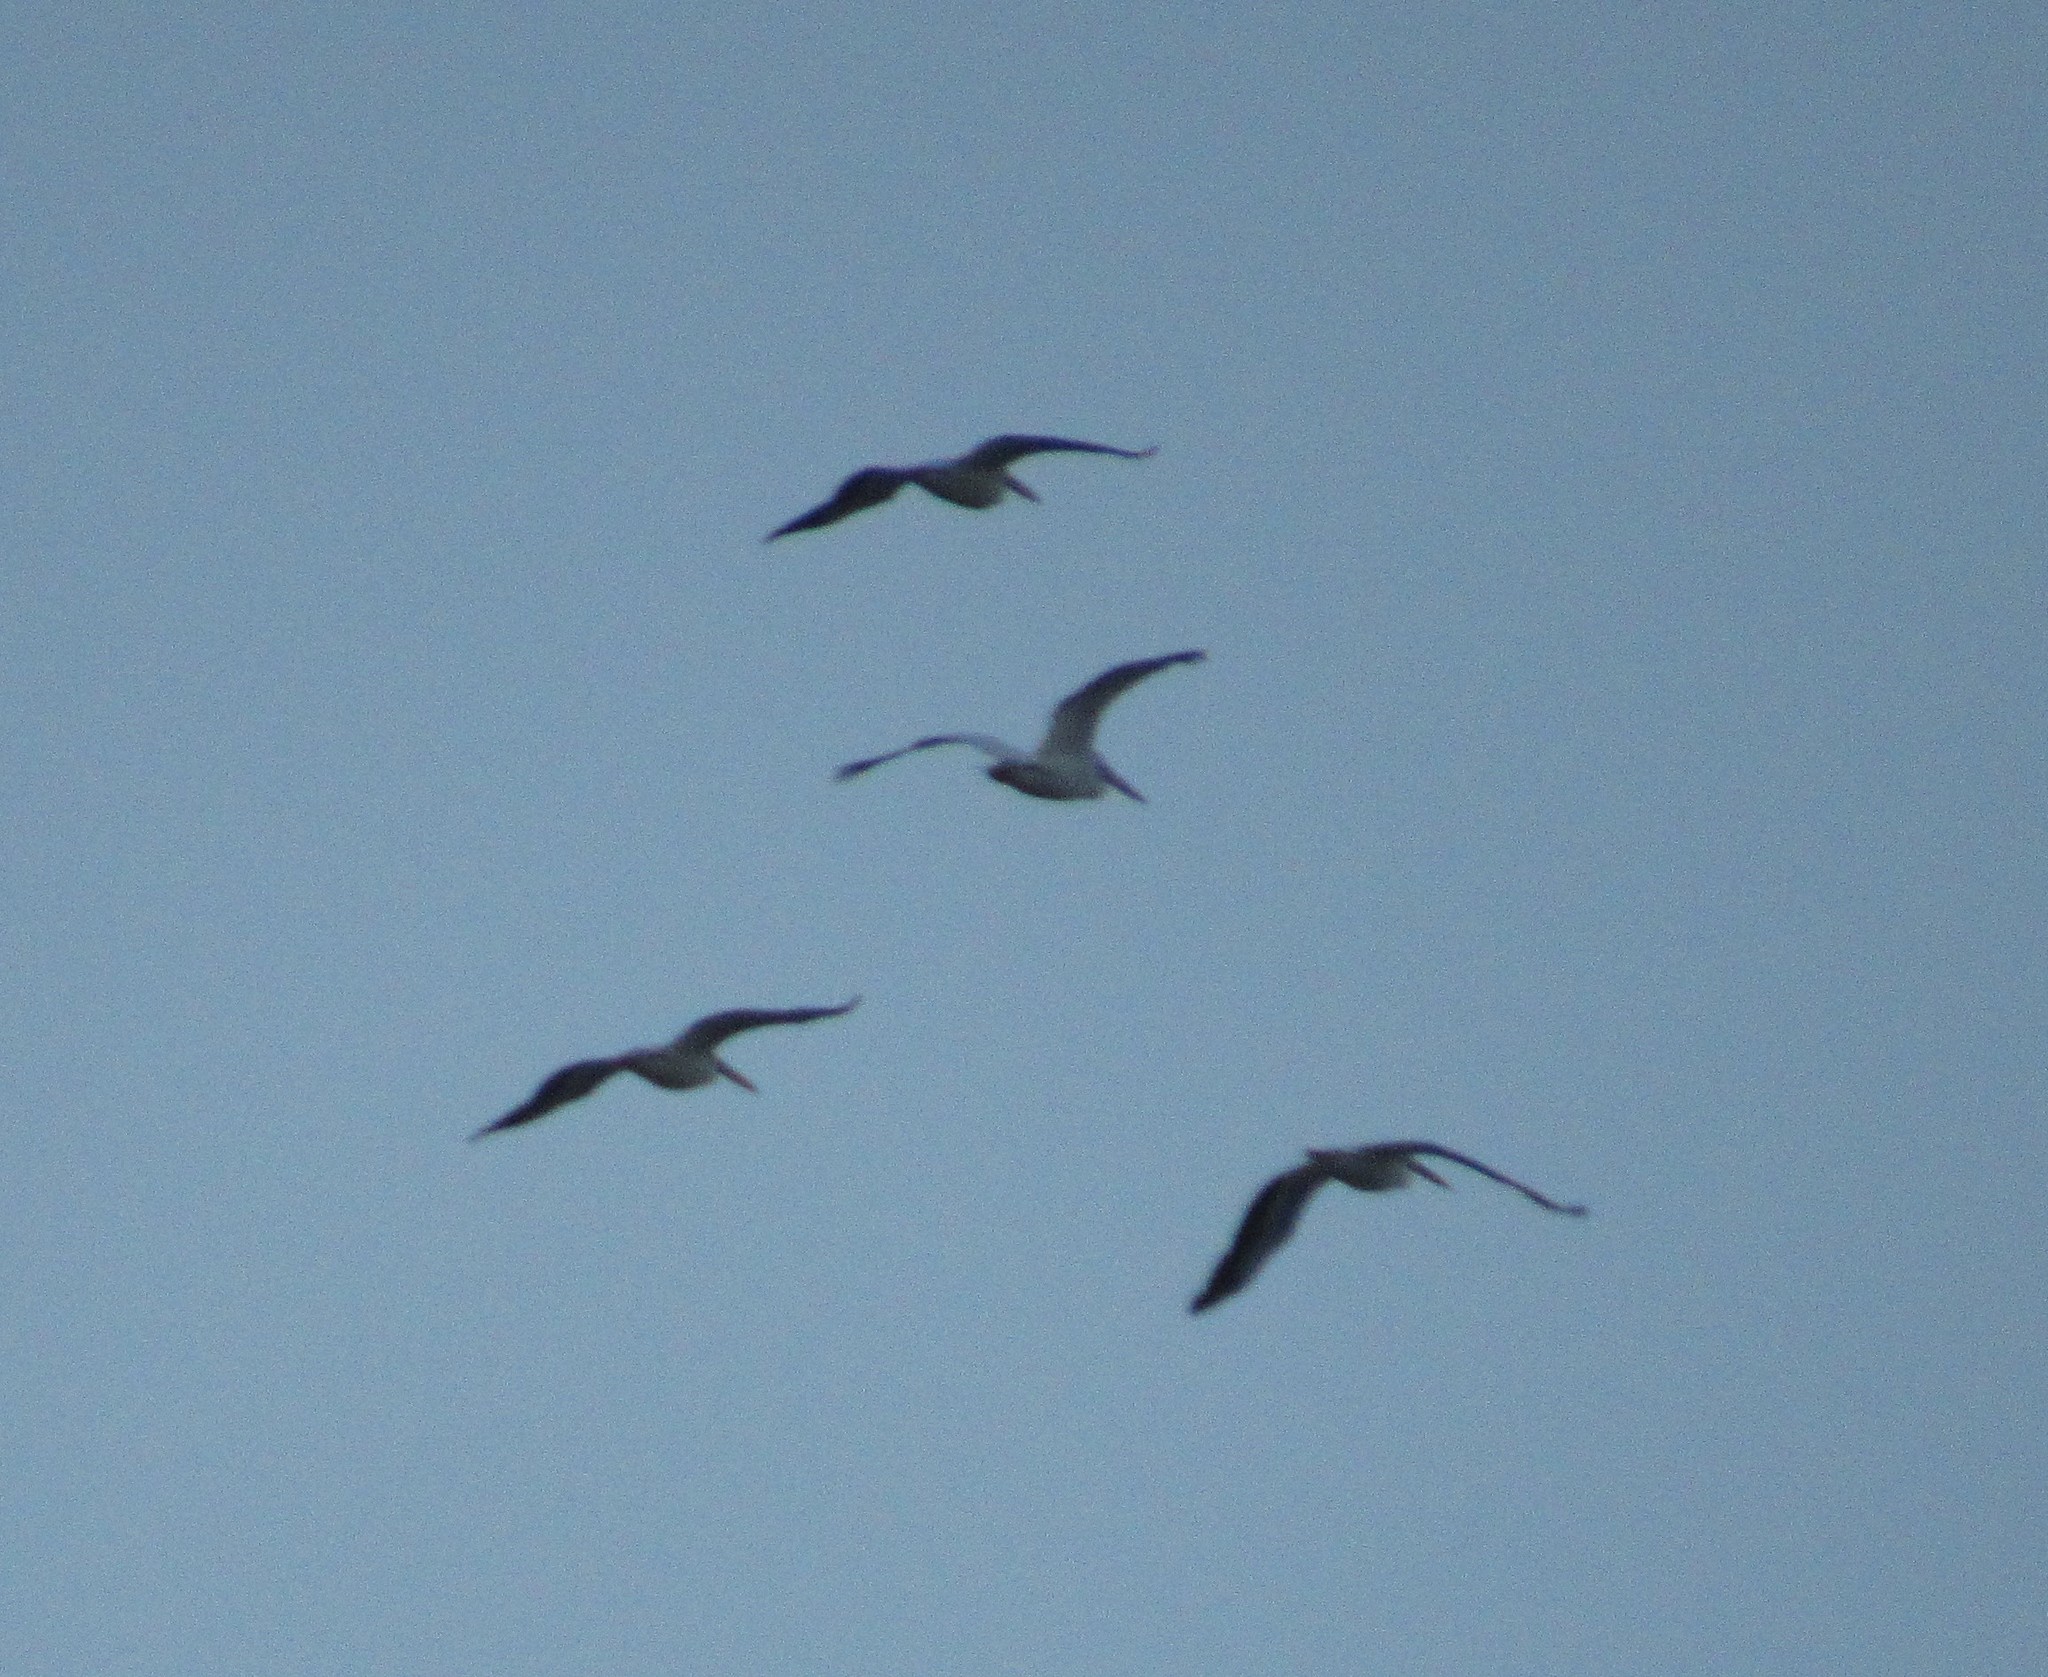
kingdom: Animalia
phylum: Chordata
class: Aves
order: Pelecaniformes
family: Pelecanidae
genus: Pelecanus
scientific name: Pelecanus erythrorhynchos
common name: American white pelican
